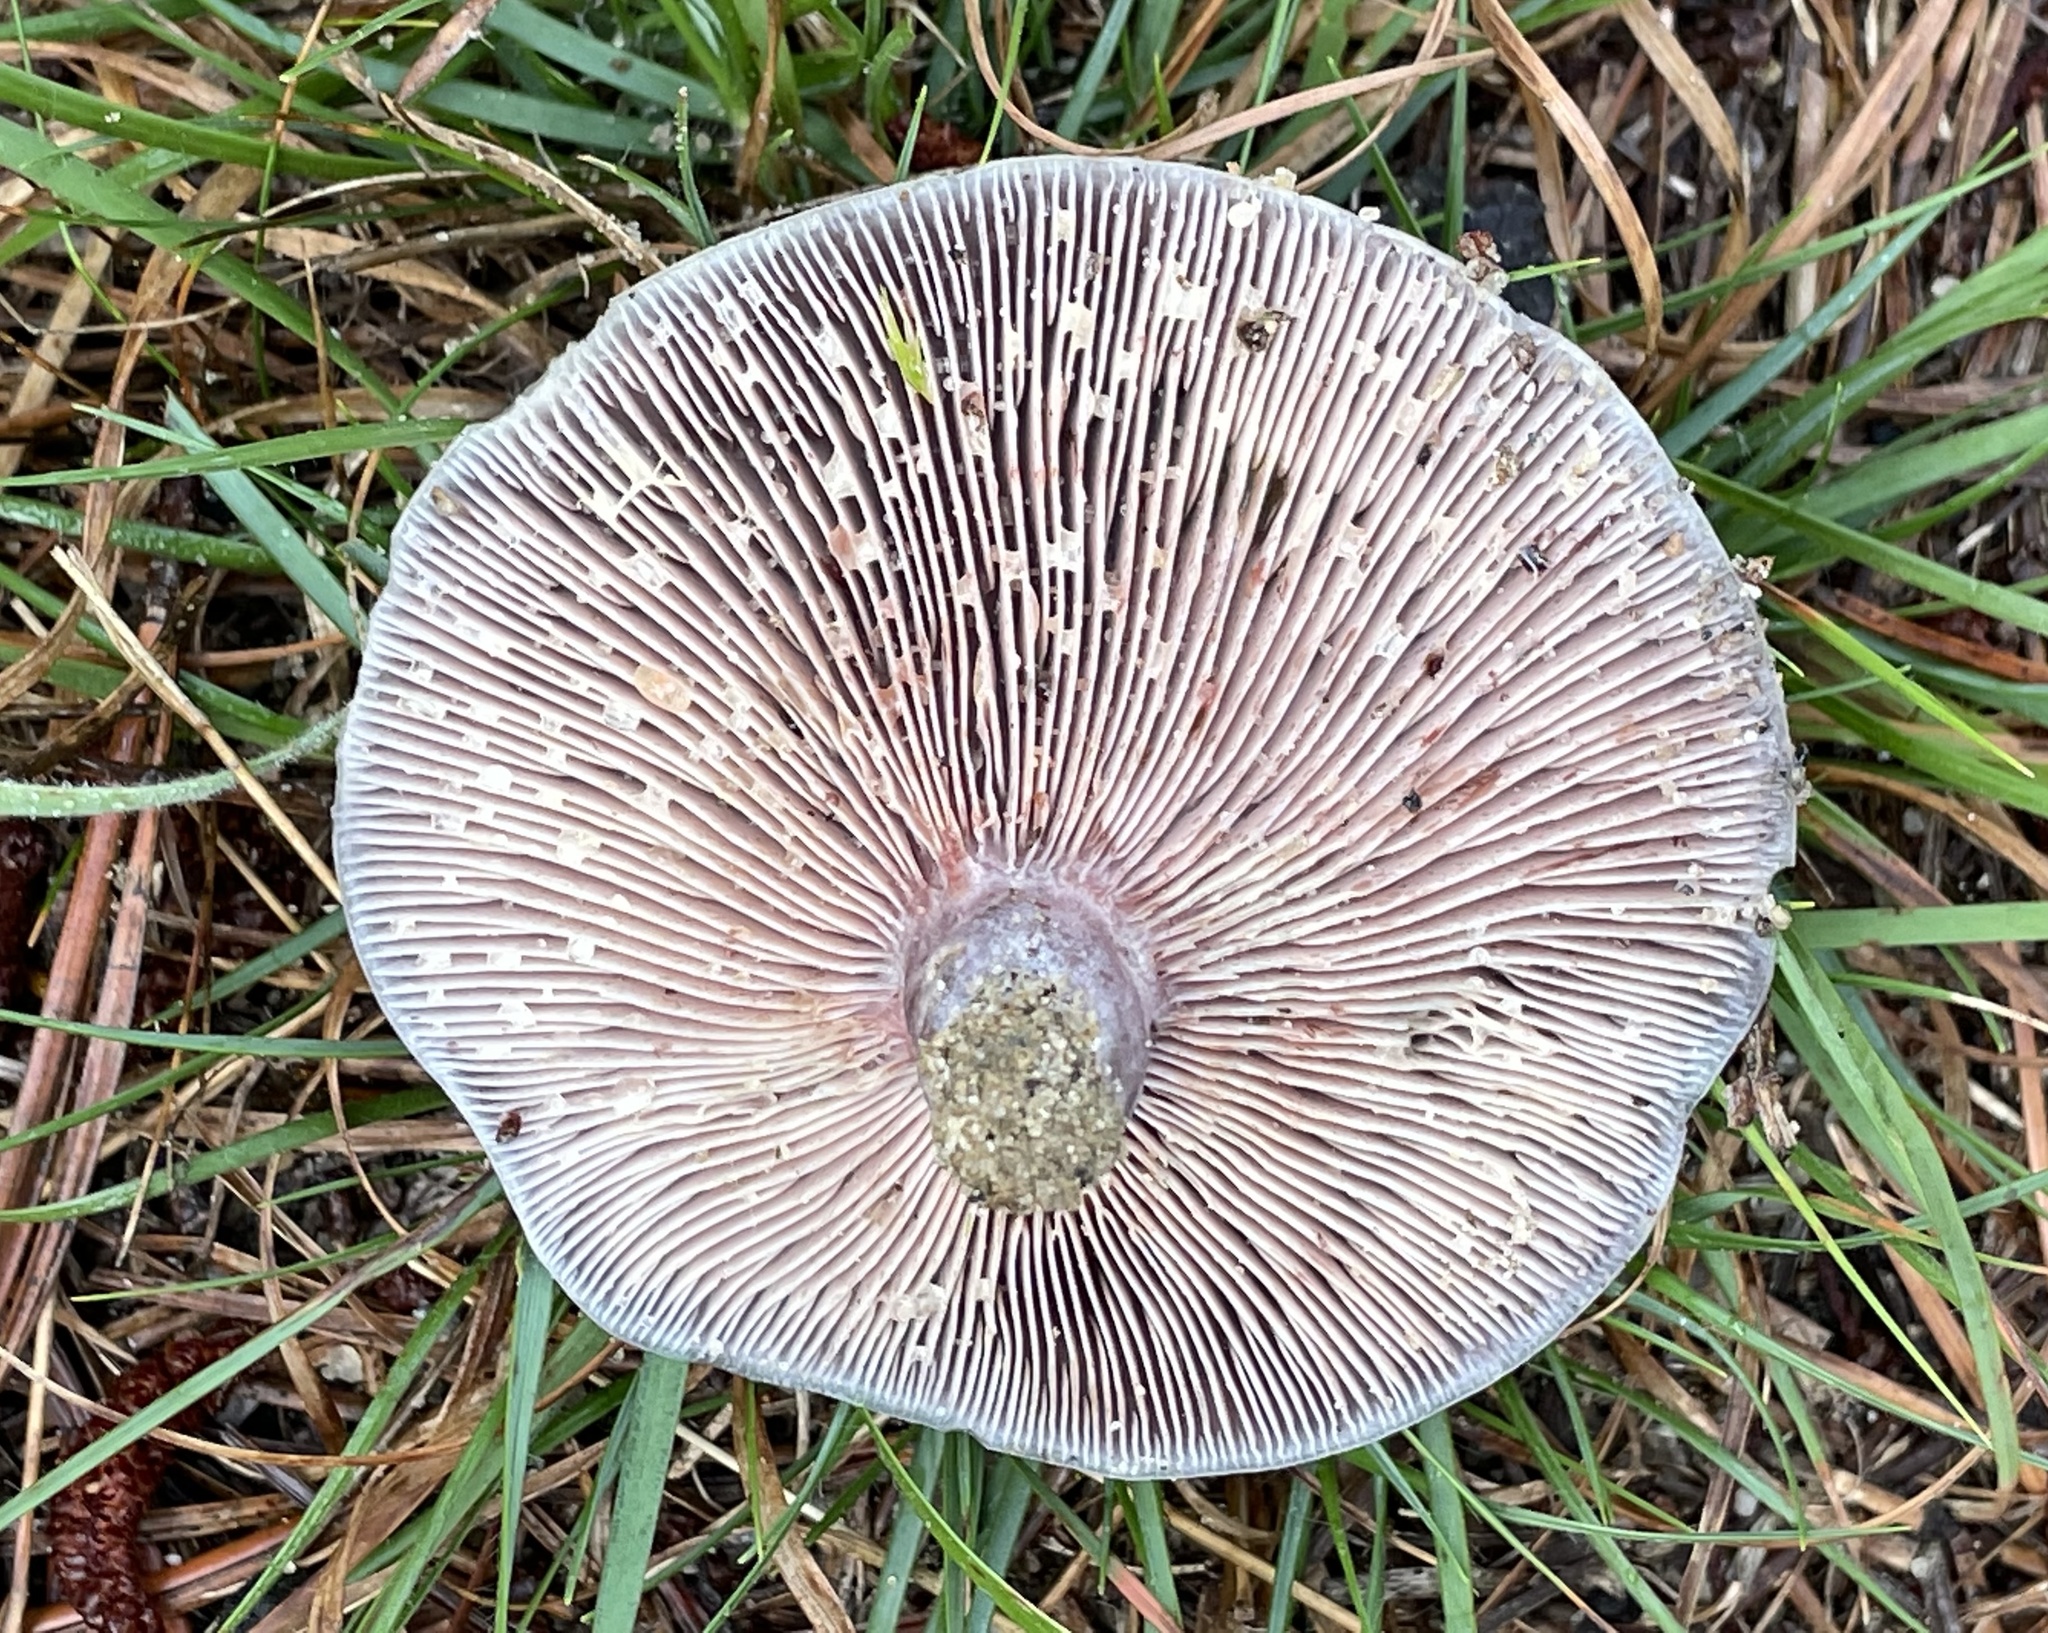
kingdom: Fungi
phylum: Basidiomycota
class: Agaricomycetes
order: Russulales
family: Russulaceae
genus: Lactarius
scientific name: Lactarius paradoxus
